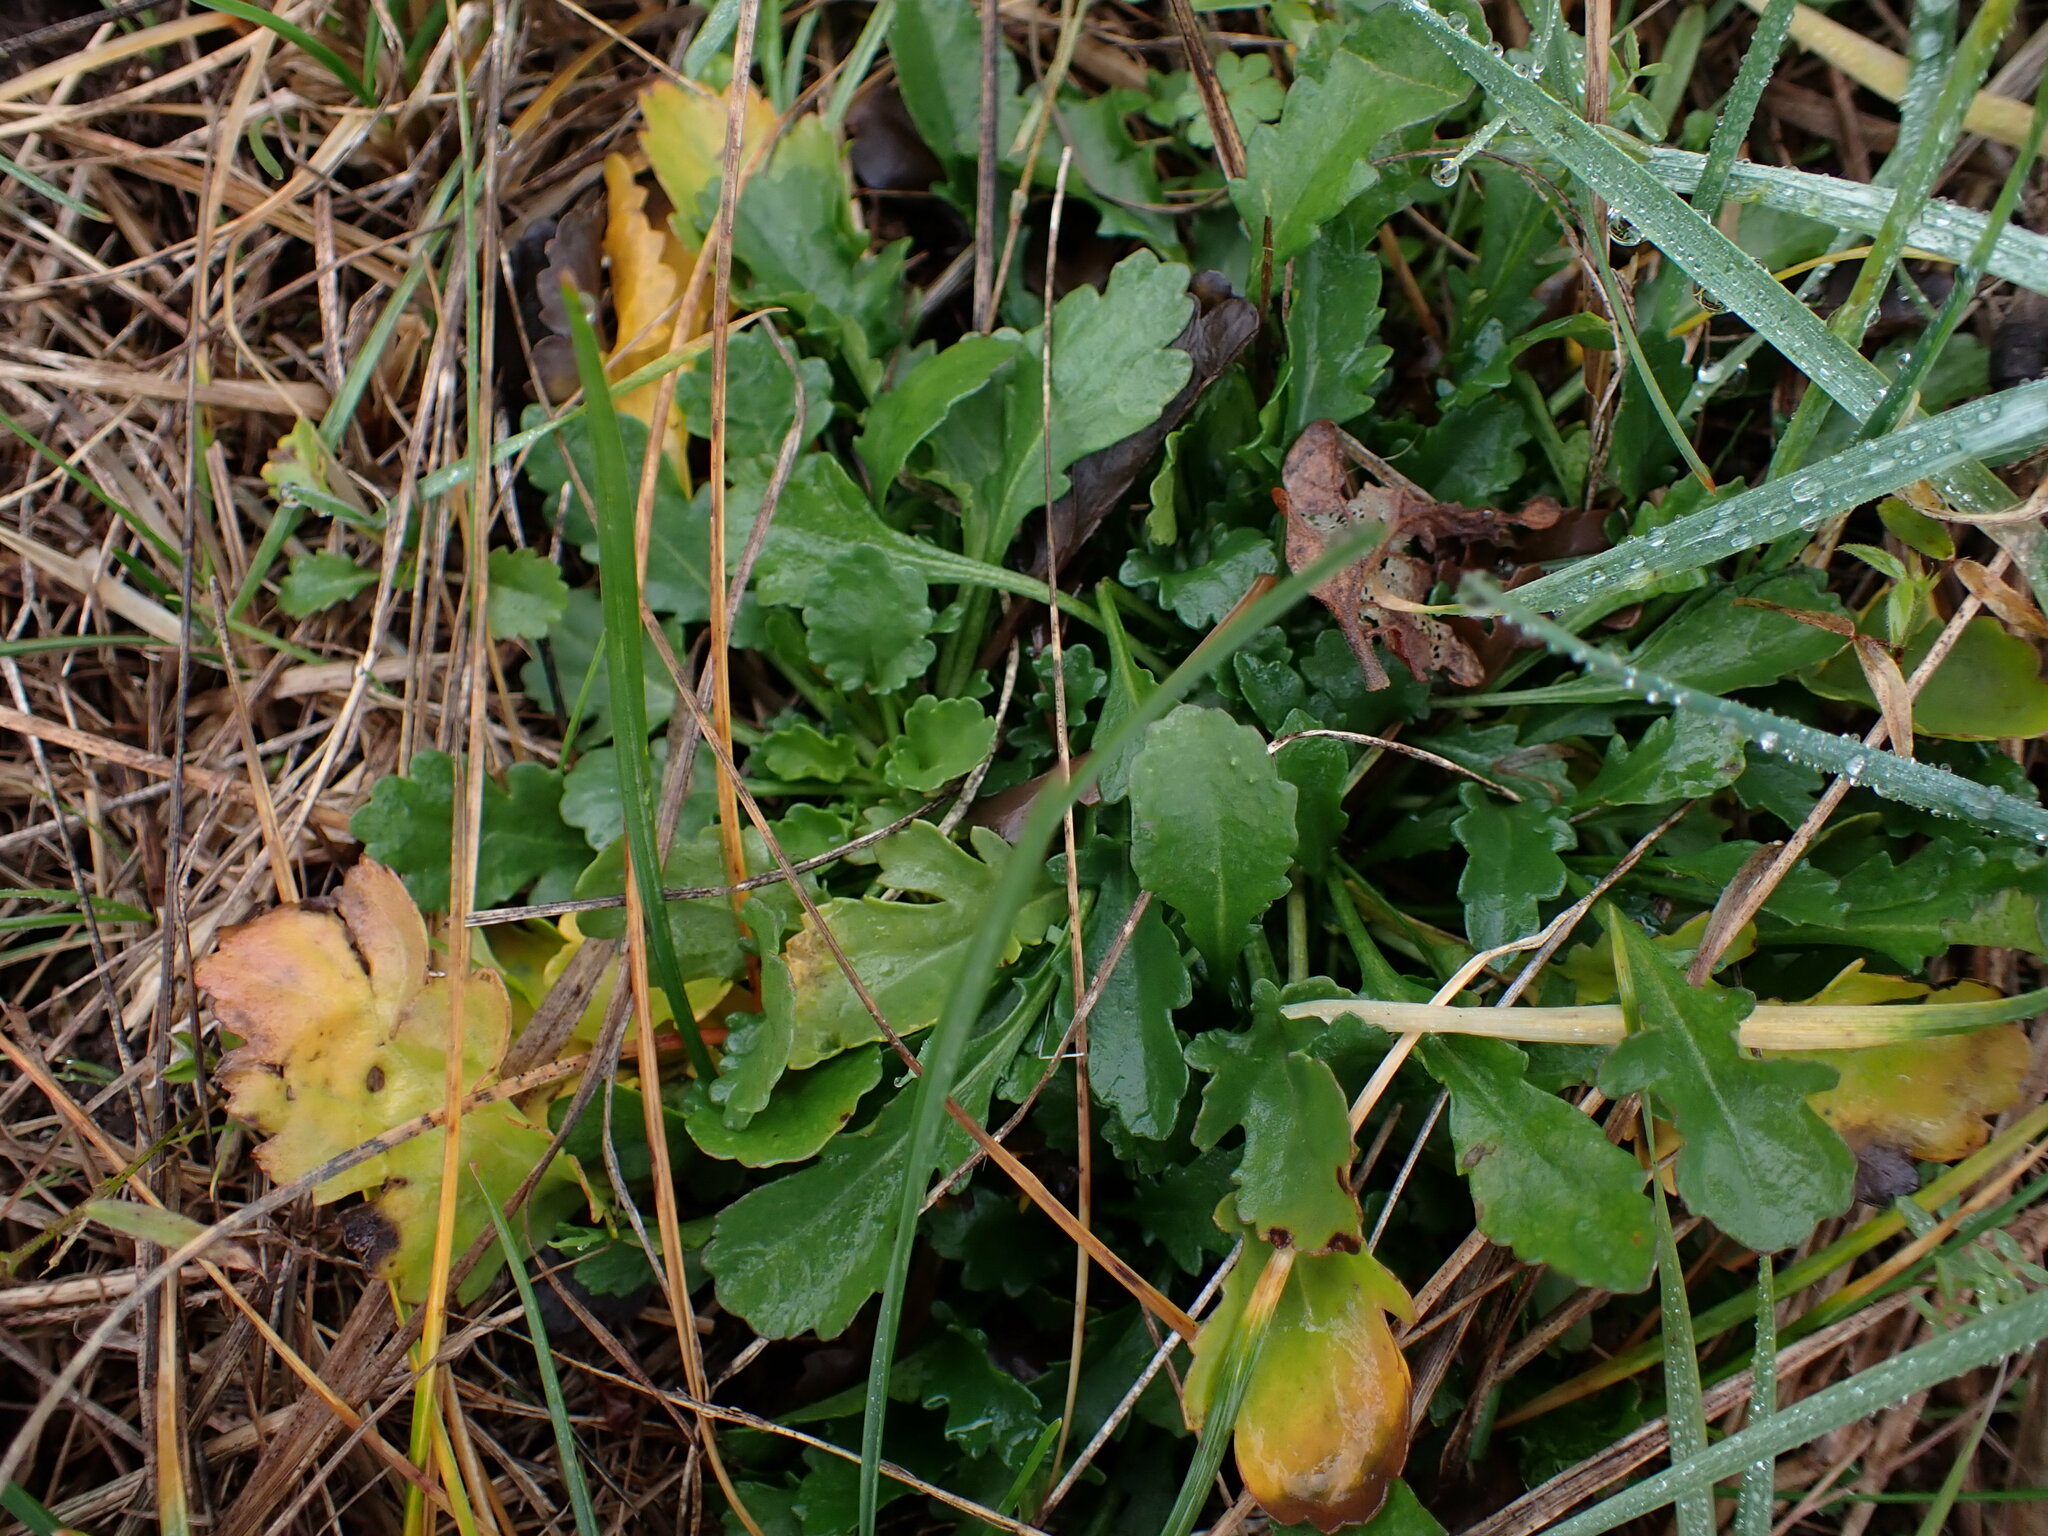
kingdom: Plantae
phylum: Tracheophyta
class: Magnoliopsida
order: Asterales
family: Asteraceae
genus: Leucanthemum
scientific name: Leucanthemum vulgare
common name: Oxeye daisy
